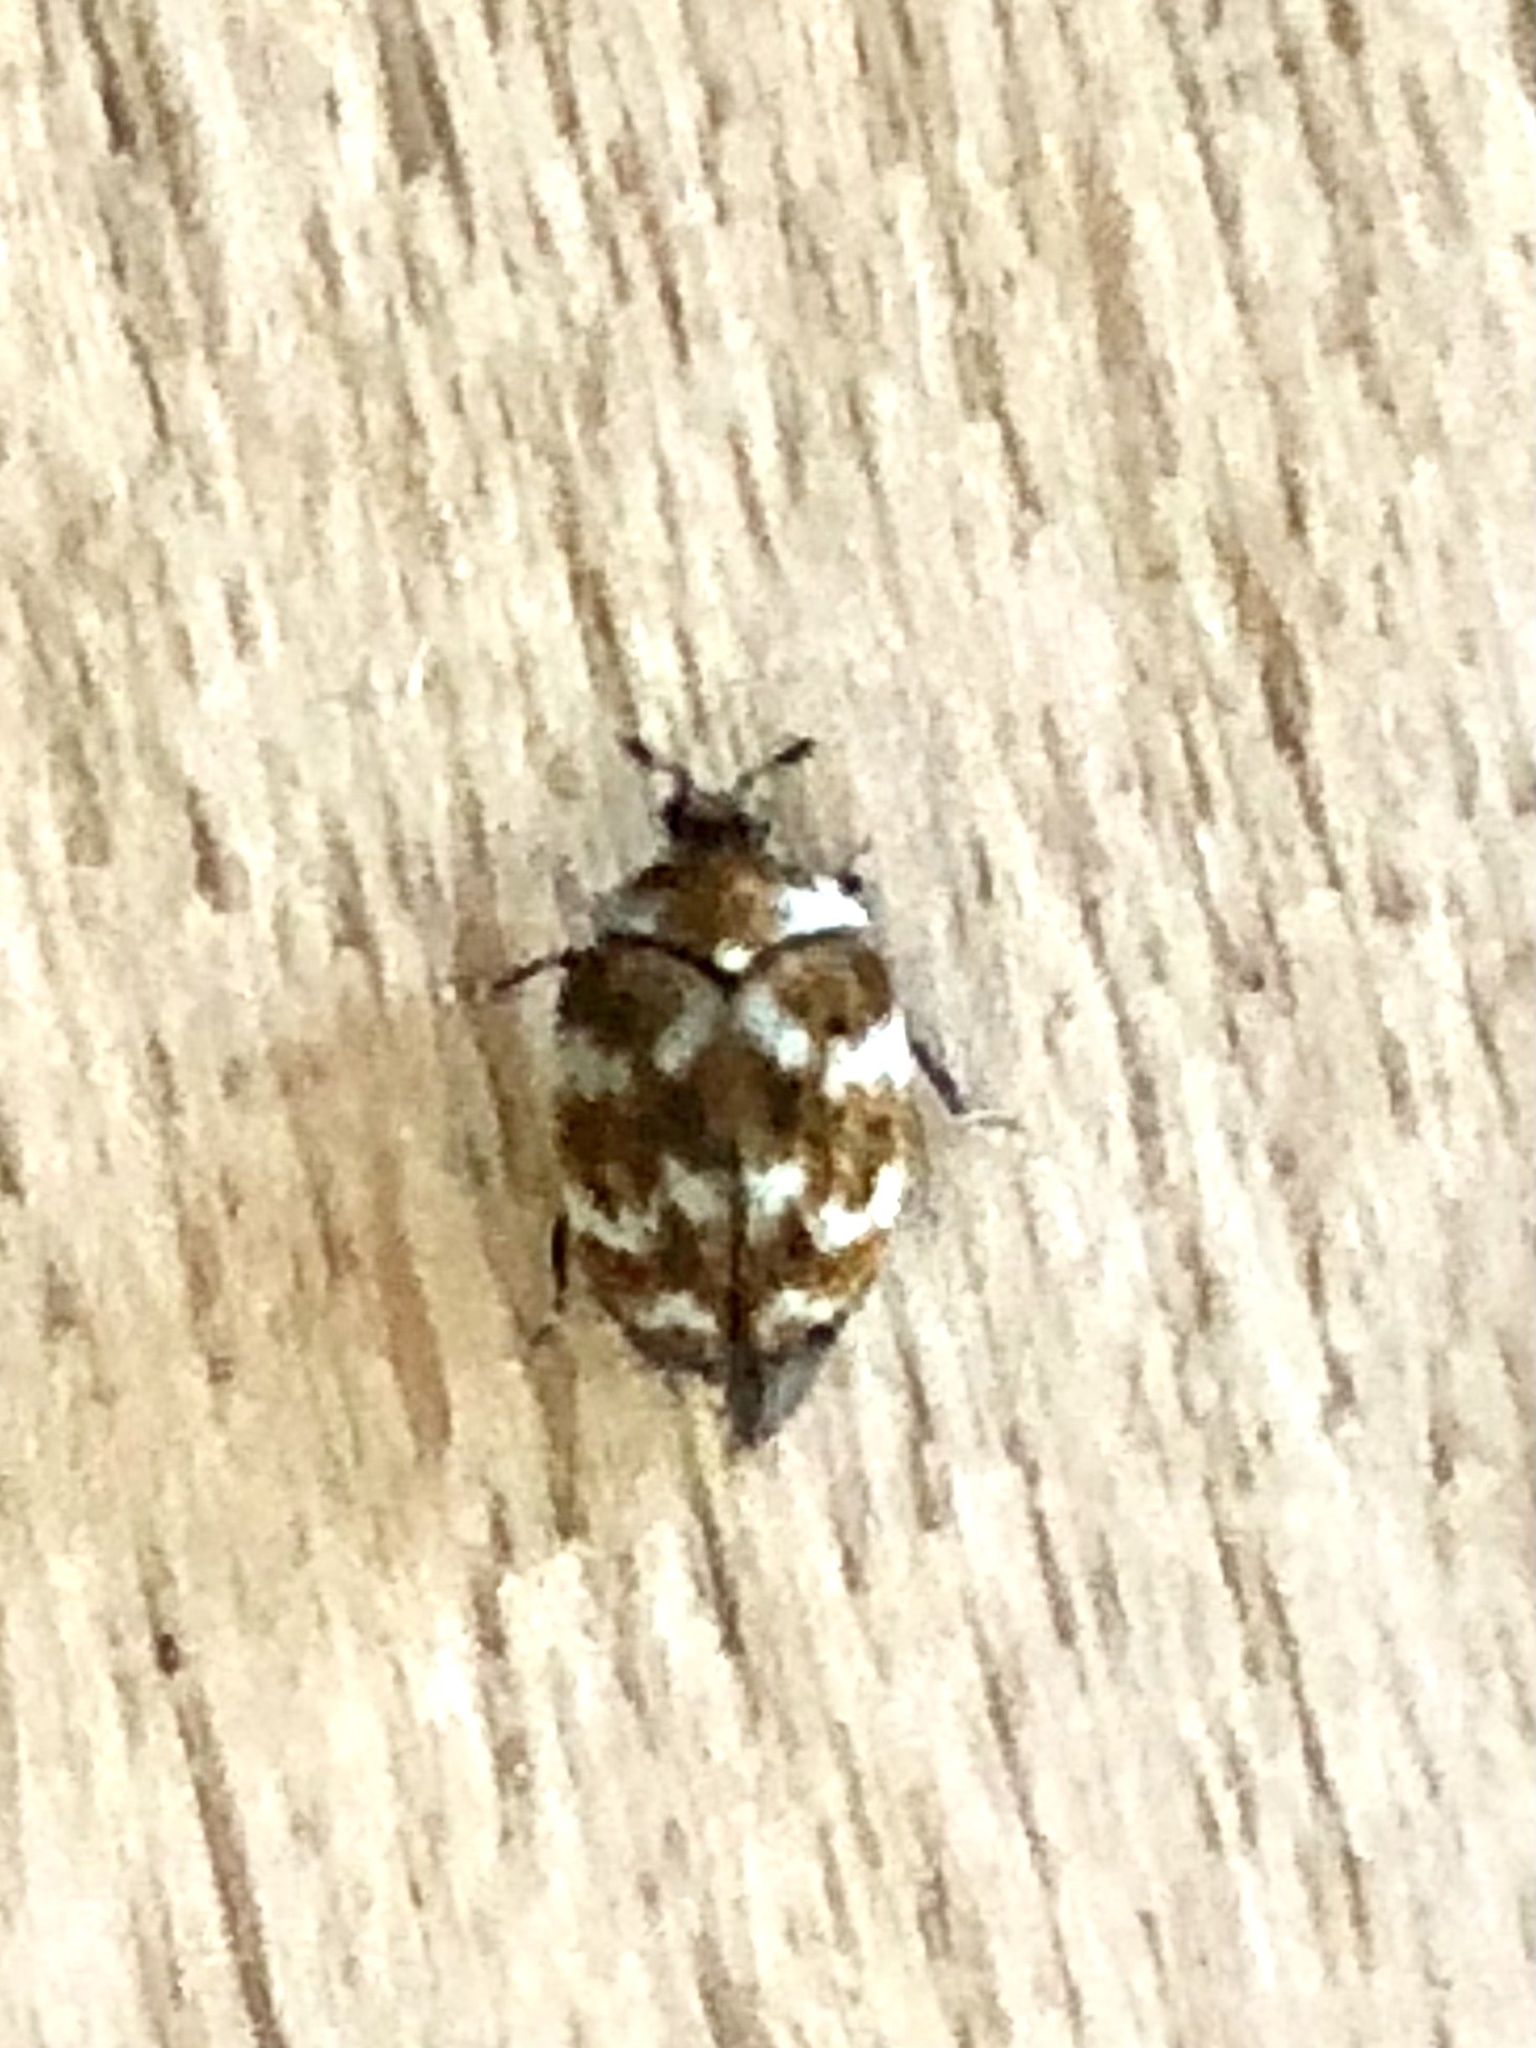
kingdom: Animalia
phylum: Arthropoda
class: Insecta
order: Coleoptera
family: Dermestidae
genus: Anthrenus
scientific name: Anthrenus verbasci
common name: Varied carpet beetle
